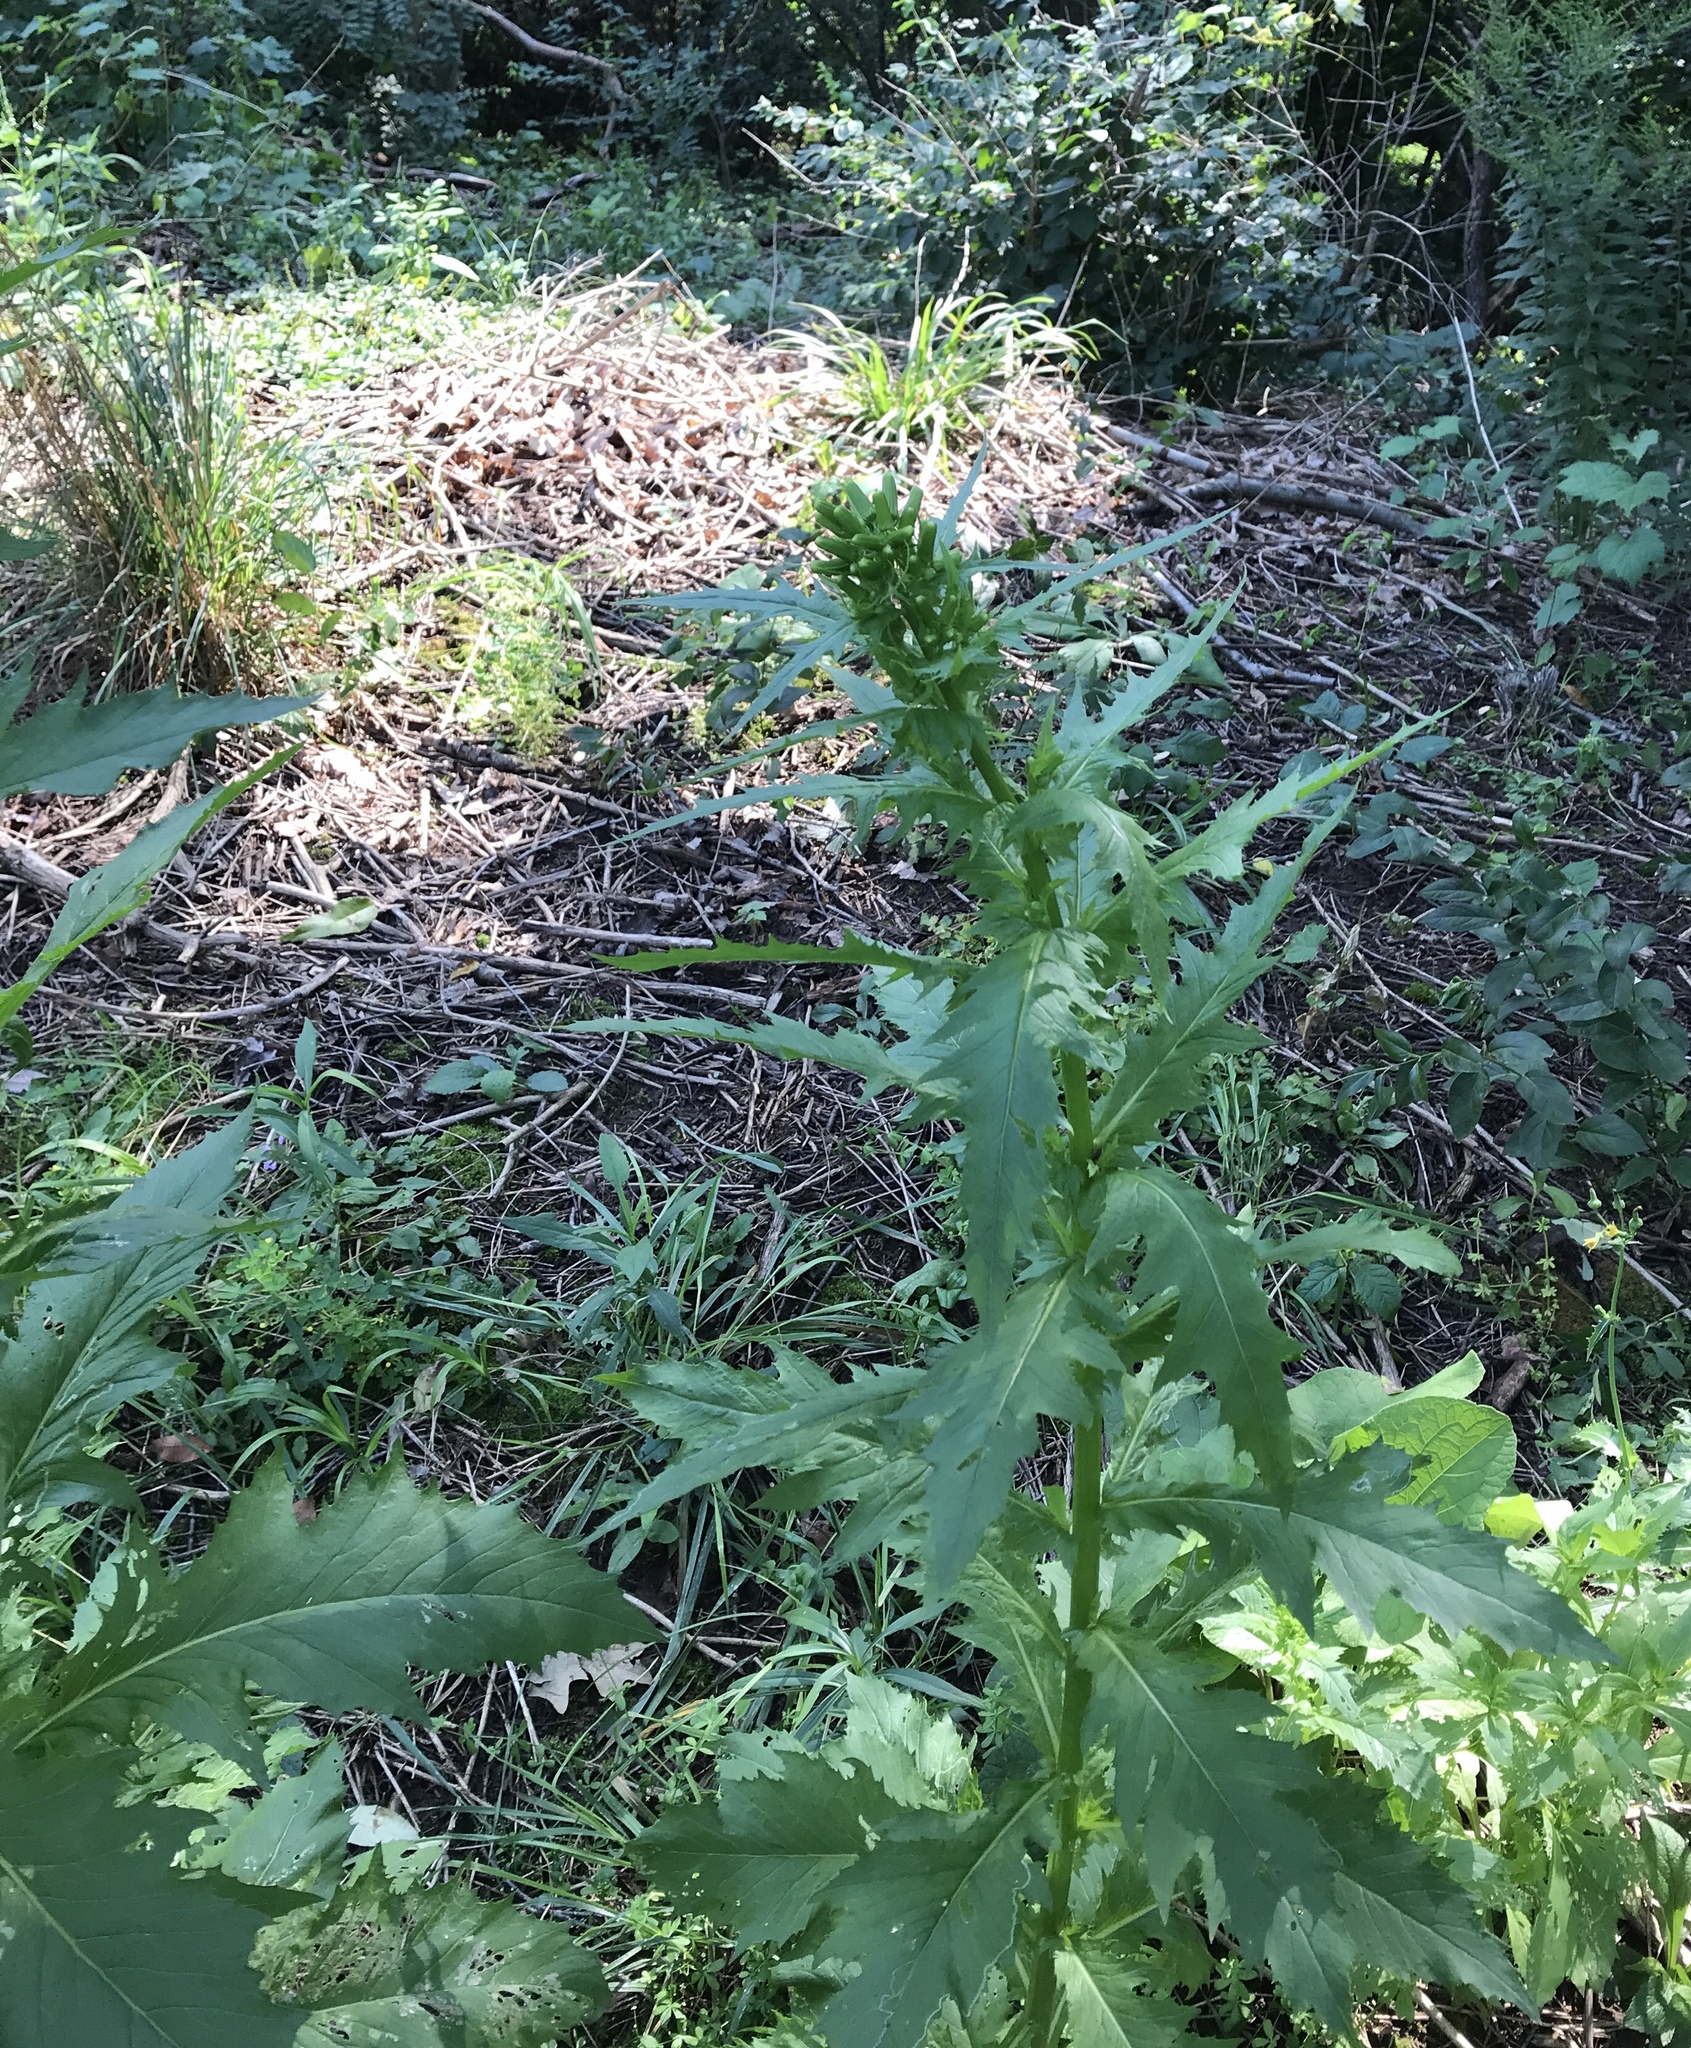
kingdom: Plantae
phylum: Tracheophyta
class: Magnoliopsida
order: Asterales
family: Asteraceae
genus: Erechtites
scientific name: Erechtites hieraciifolius
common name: American burnweed
